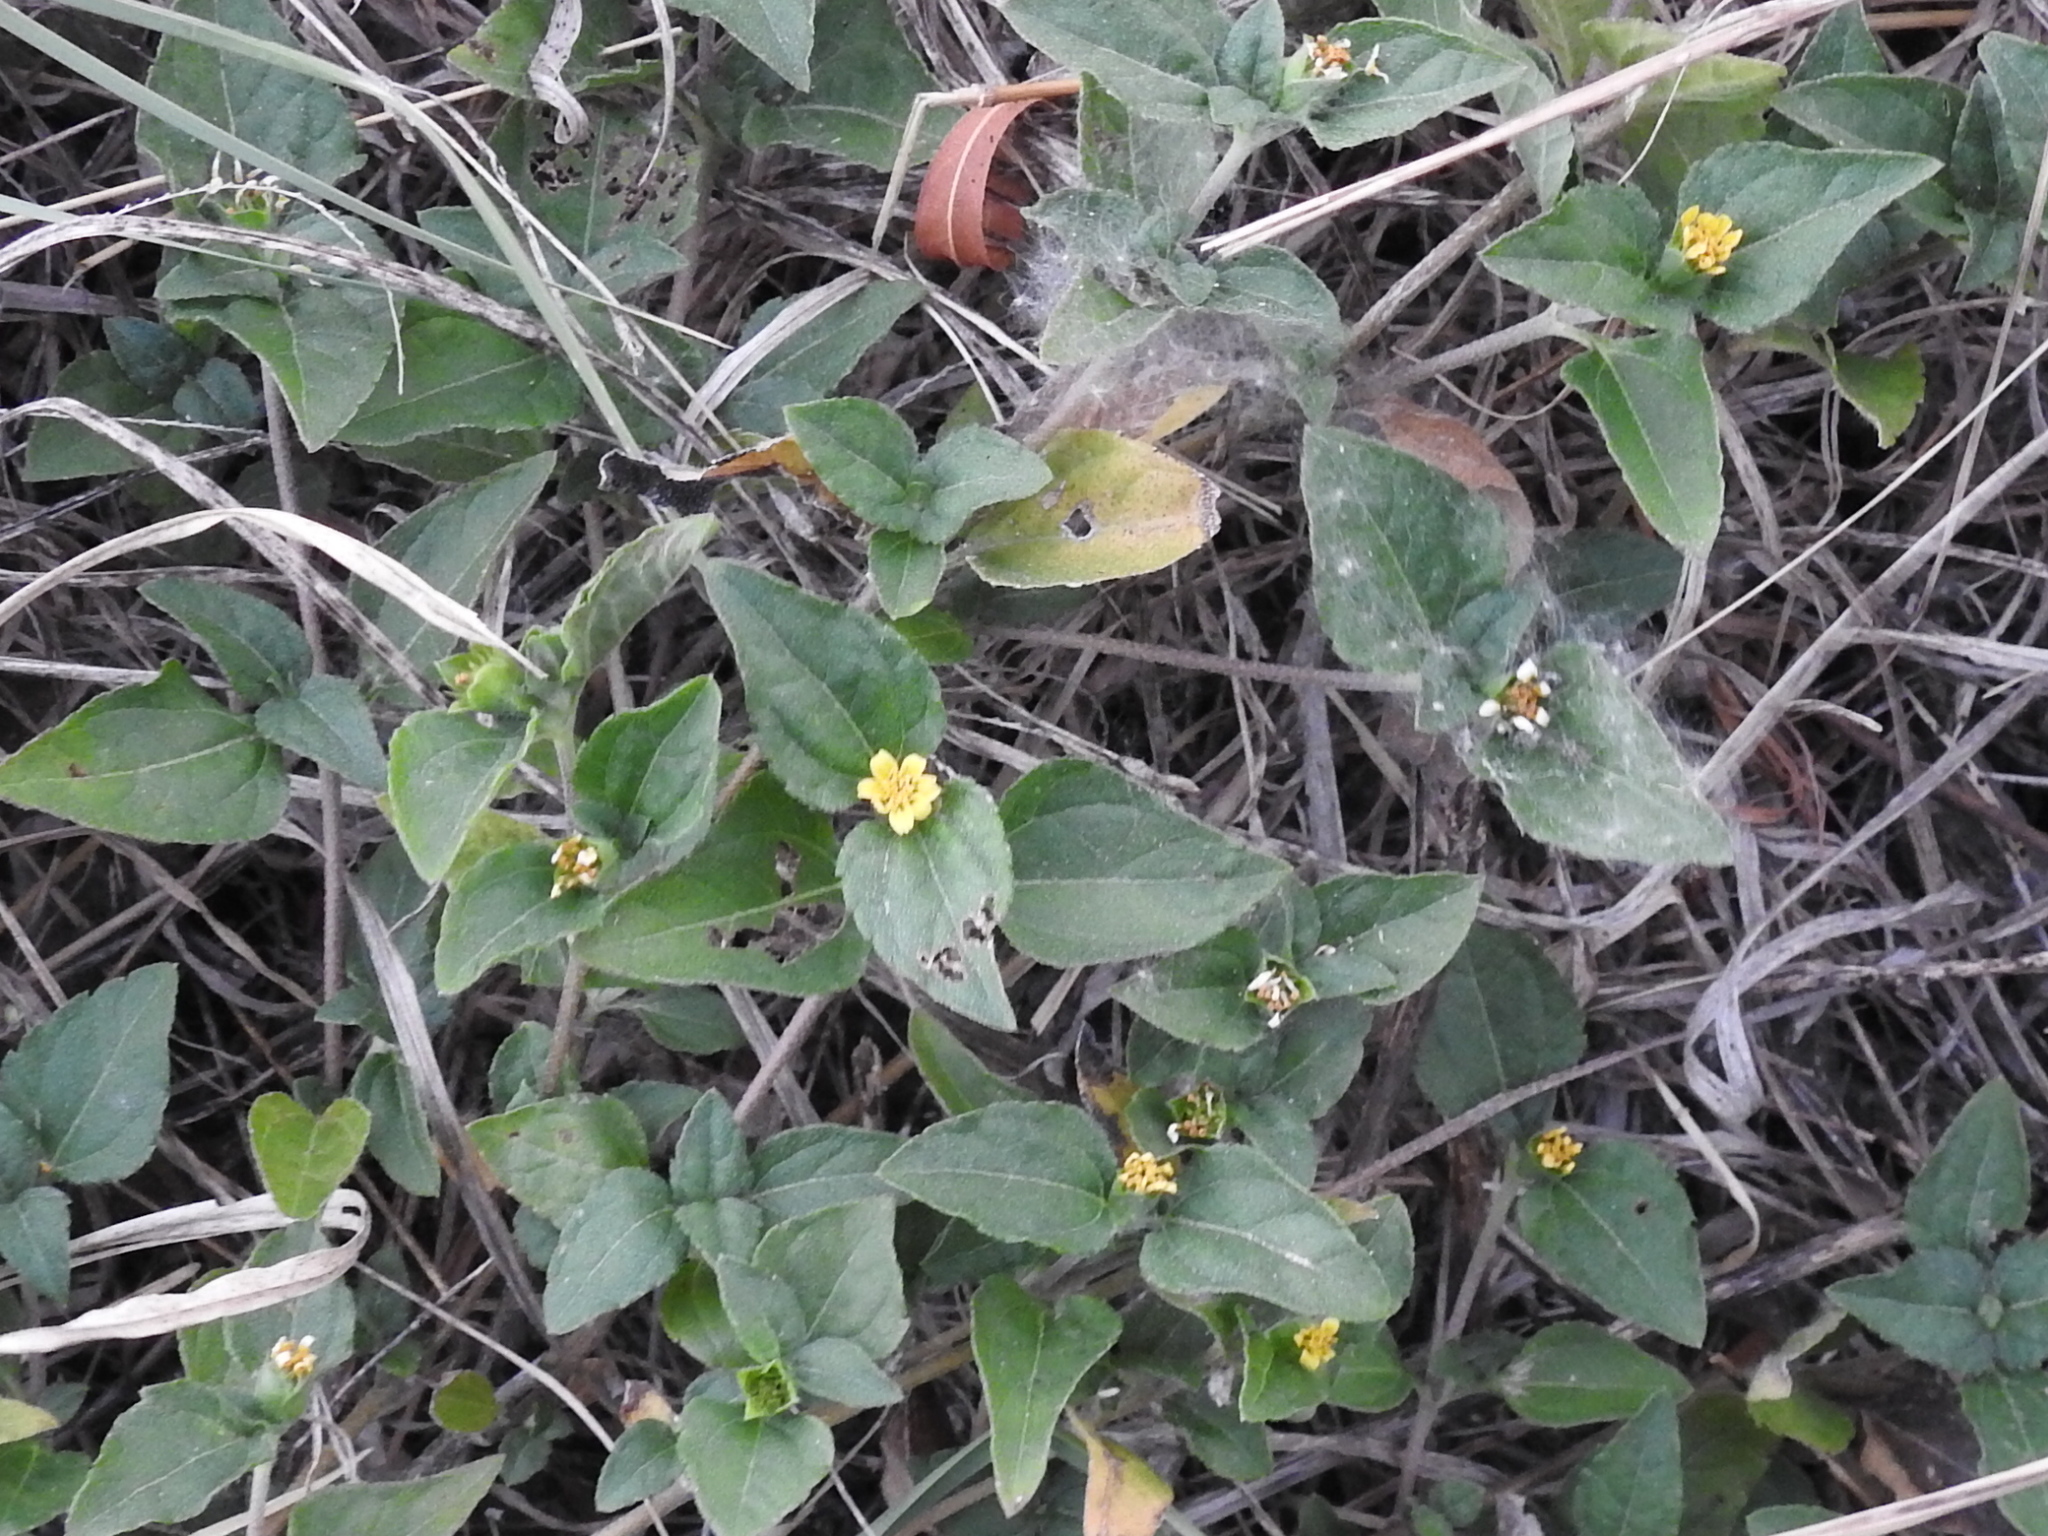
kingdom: Plantae
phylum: Tracheophyta
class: Magnoliopsida
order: Asterales
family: Asteraceae
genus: Calyptocarpus
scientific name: Calyptocarpus vialis
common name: Straggler daisy
